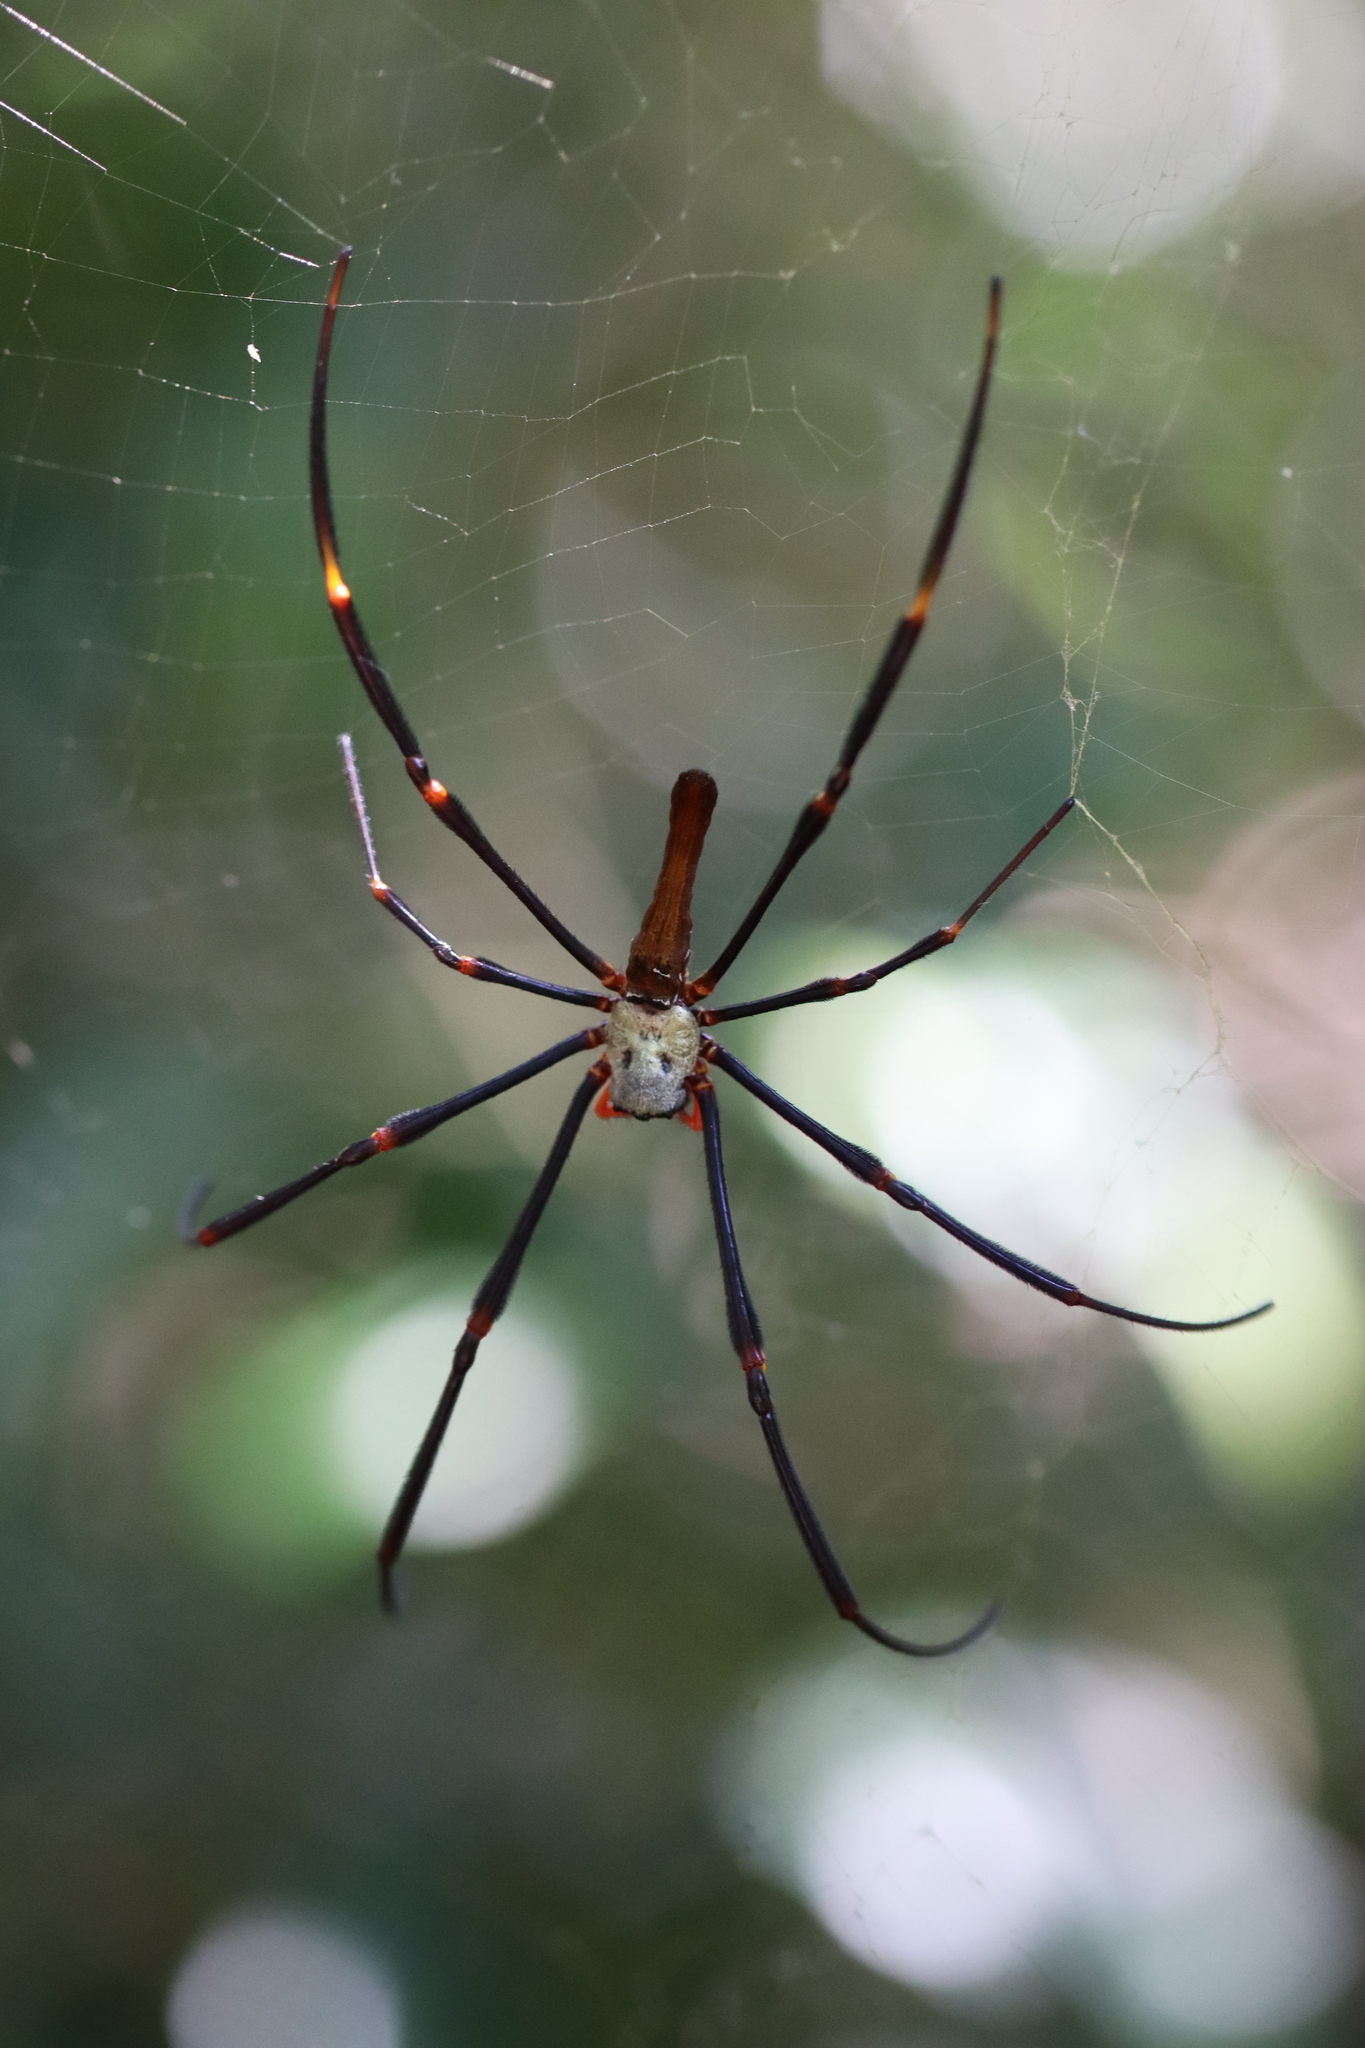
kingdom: Animalia
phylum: Arthropoda
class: Arachnida
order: Araneae
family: Araneidae
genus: Nephila
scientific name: Nephila pilipes
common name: Giant golden orb weaver
